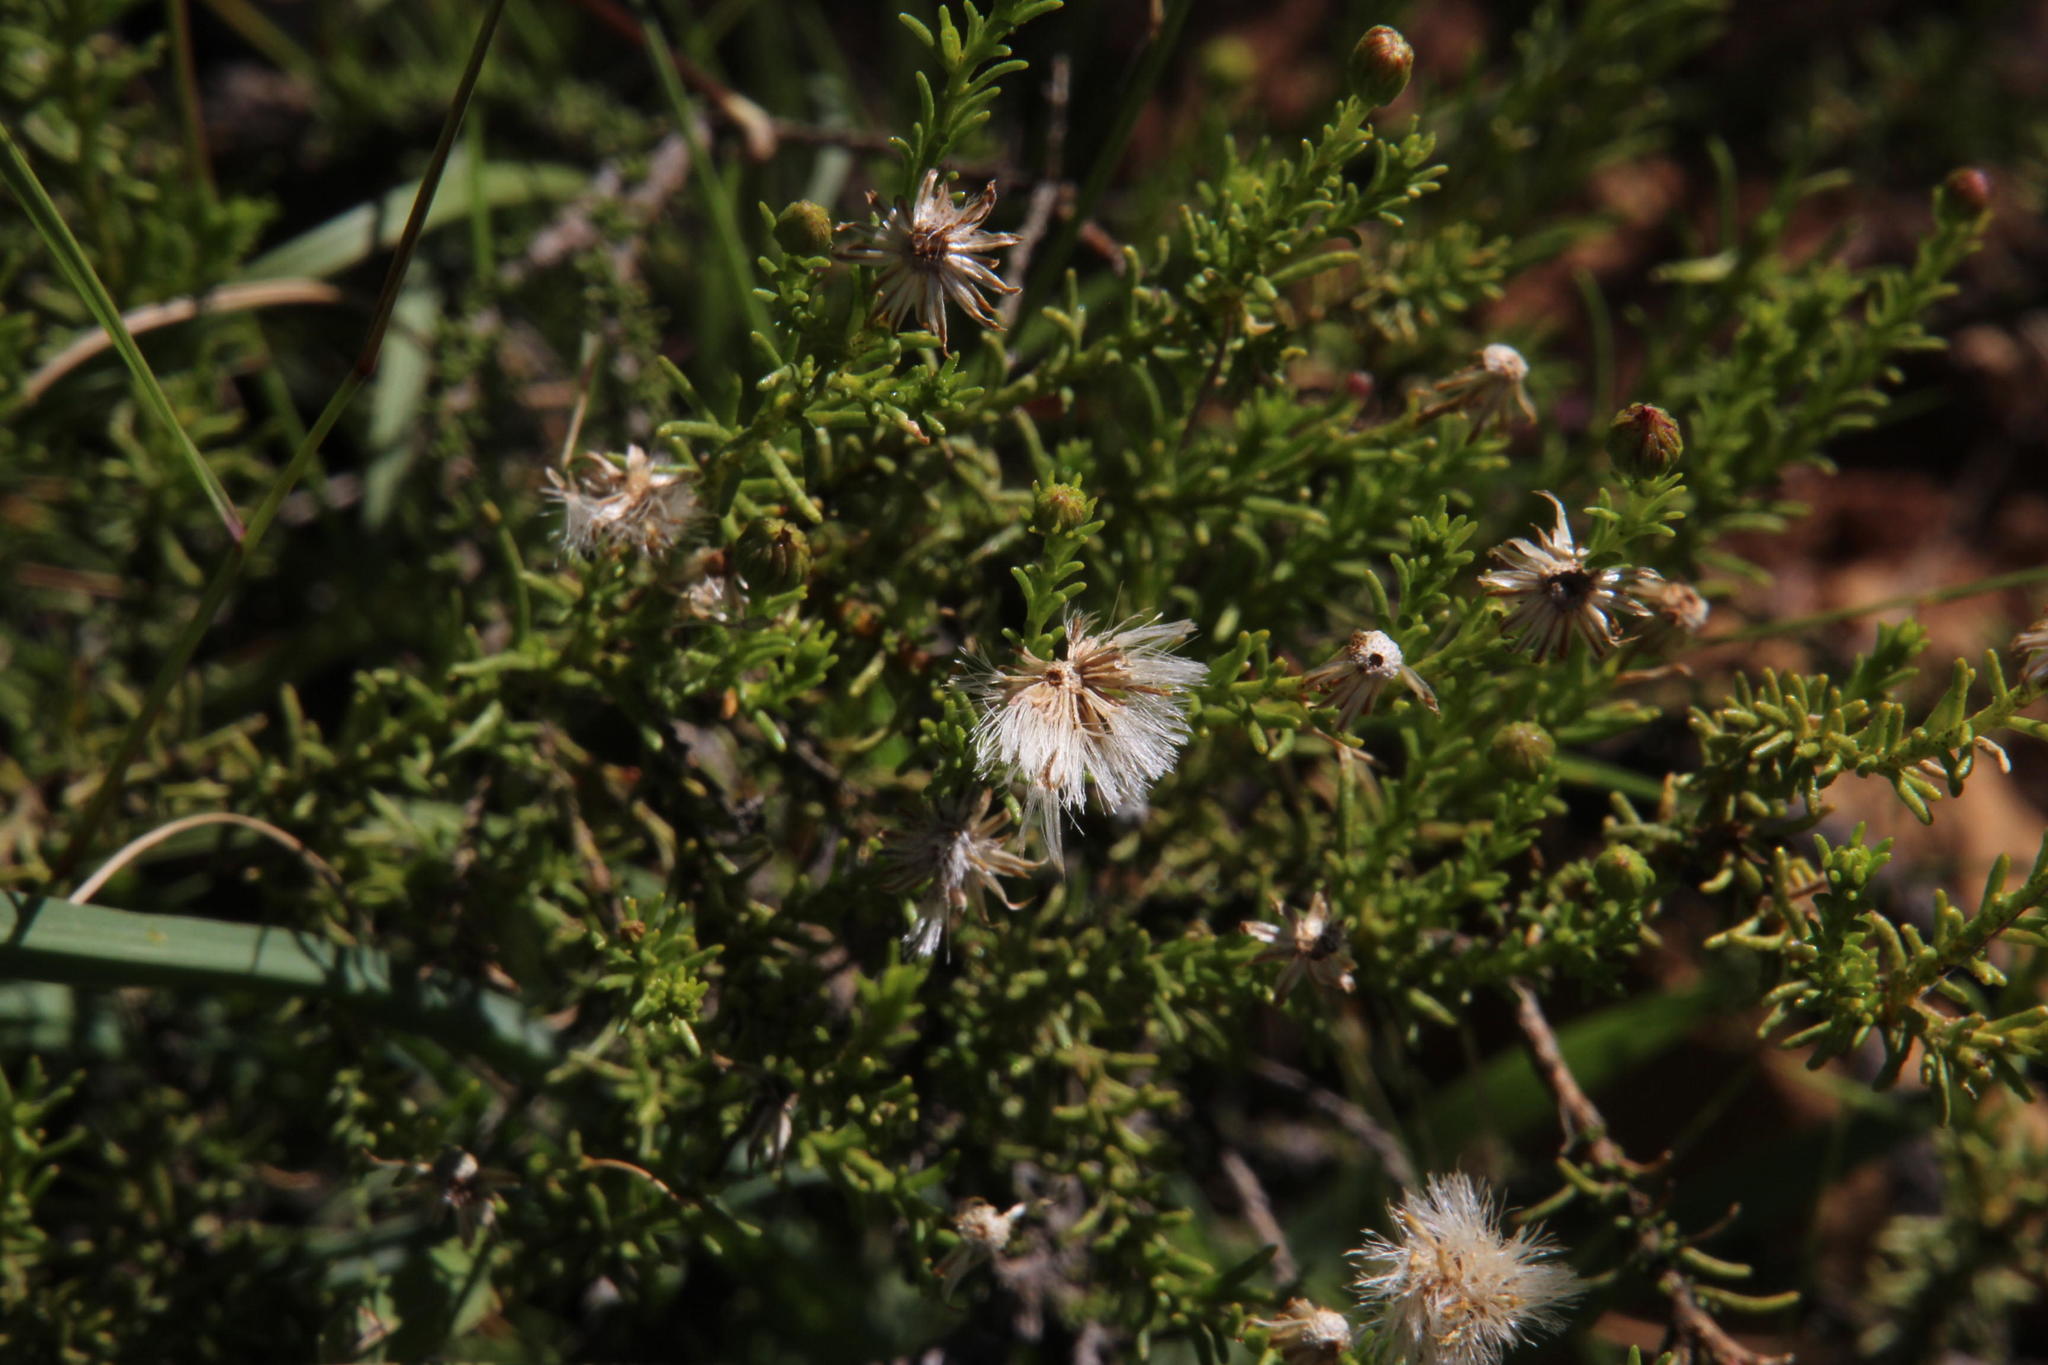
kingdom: Plantae
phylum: Tracheophyta
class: Magnoliopsida
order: Asterales
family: Asteraceae
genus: Chrysocoma
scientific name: Chrysocoma ciliata
